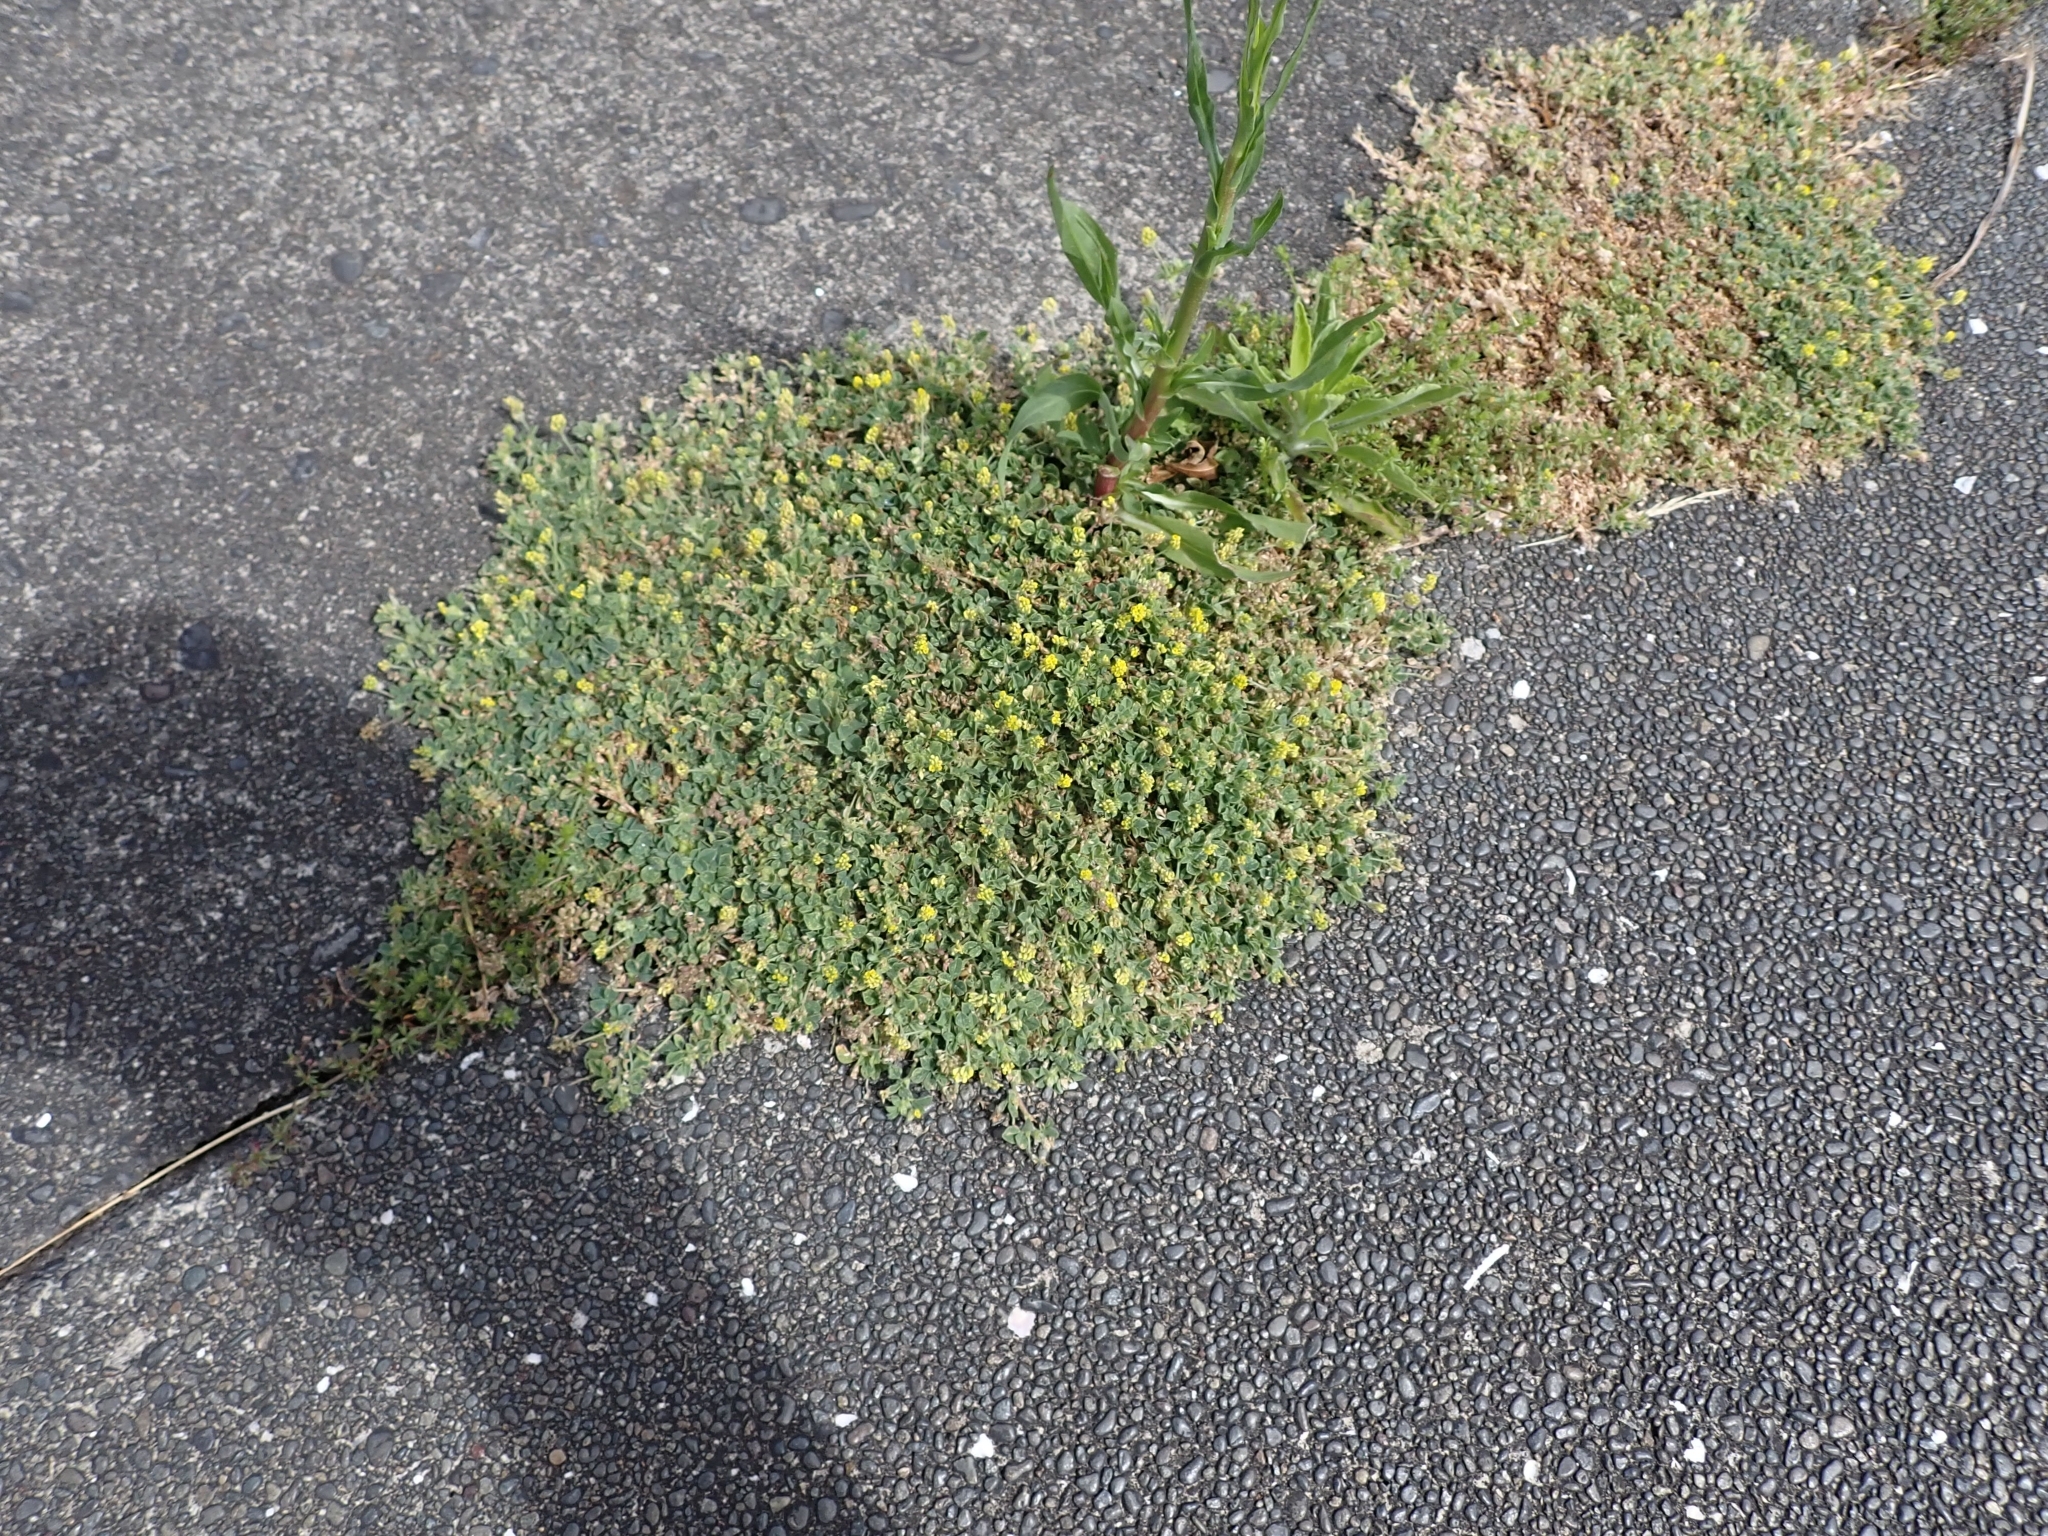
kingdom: Plantae
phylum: Tracheophyta
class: Magnoliopsida
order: Fabales
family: Fabaceae
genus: Medicago
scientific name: Medicago lupulina
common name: Black medick
